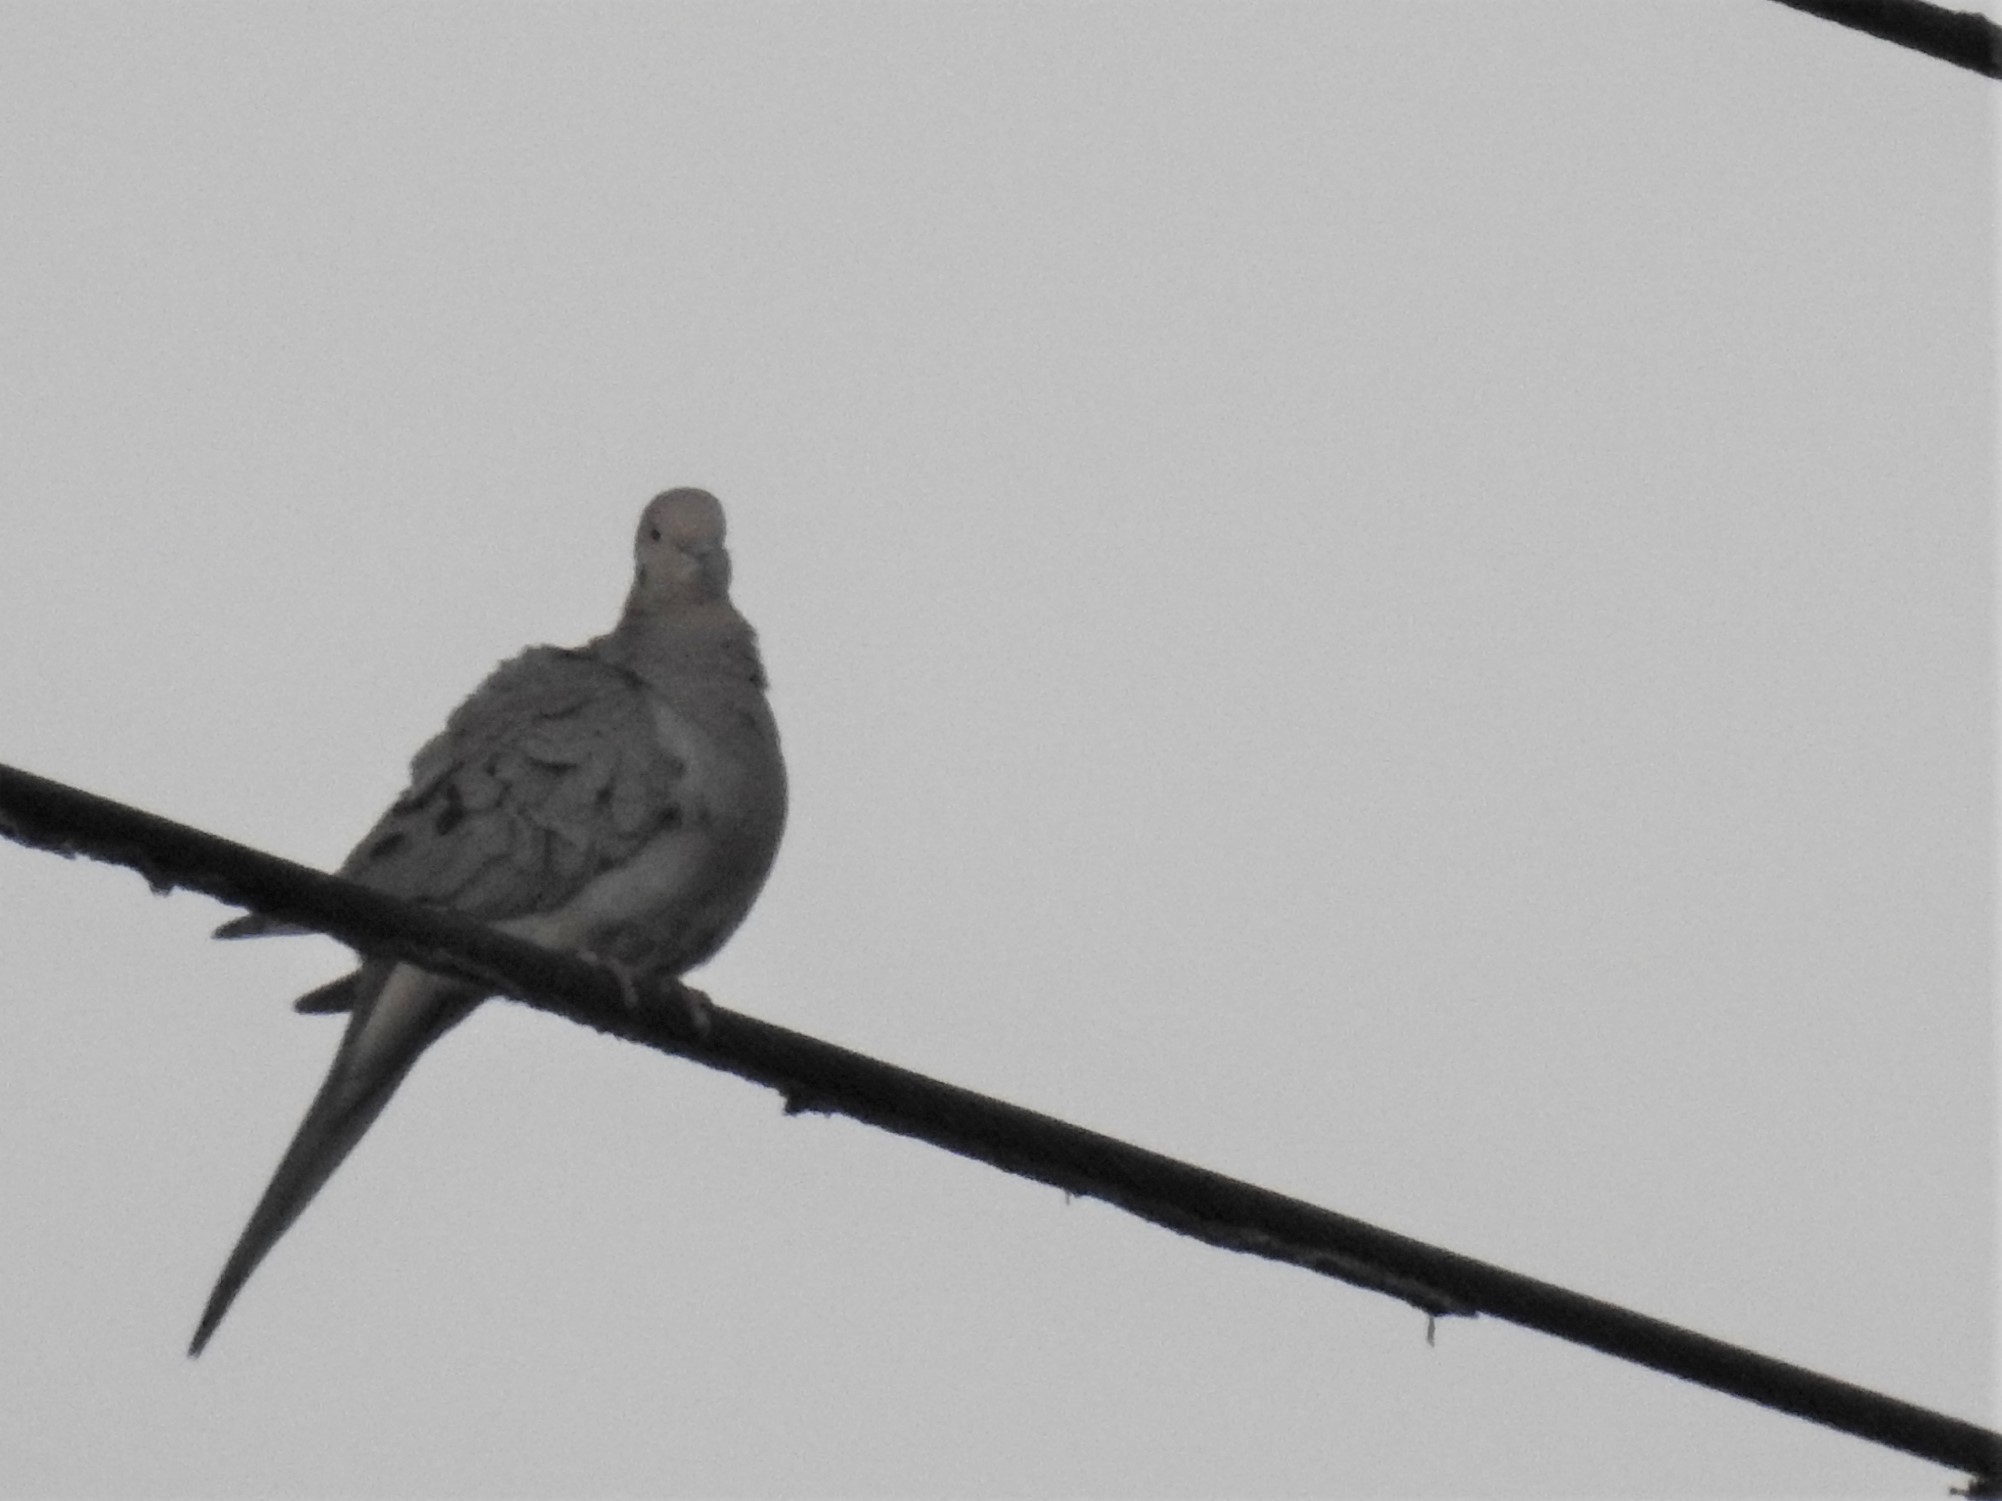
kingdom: Animalia
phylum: Chordata
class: Aves
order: Columbiformes
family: Columbidae
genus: Zenaida
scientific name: Zenaida macroura
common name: Mourning dove
